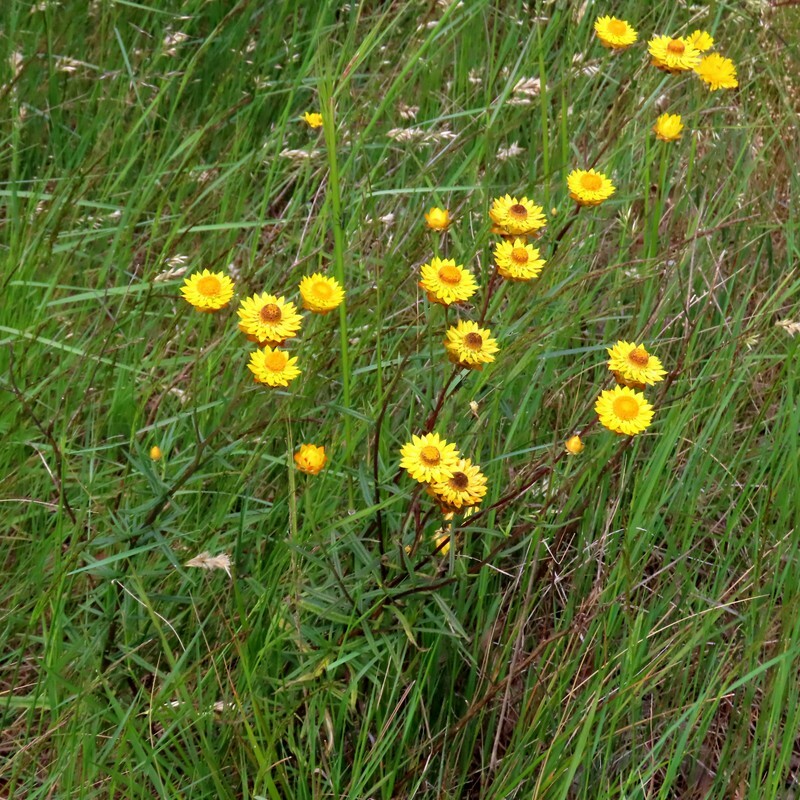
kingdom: Plantae
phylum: Tracheophyta
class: Magnoliopsida
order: Asterales
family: Asteraceae
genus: Xerochrysum
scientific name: Xerochrysum viscosum
